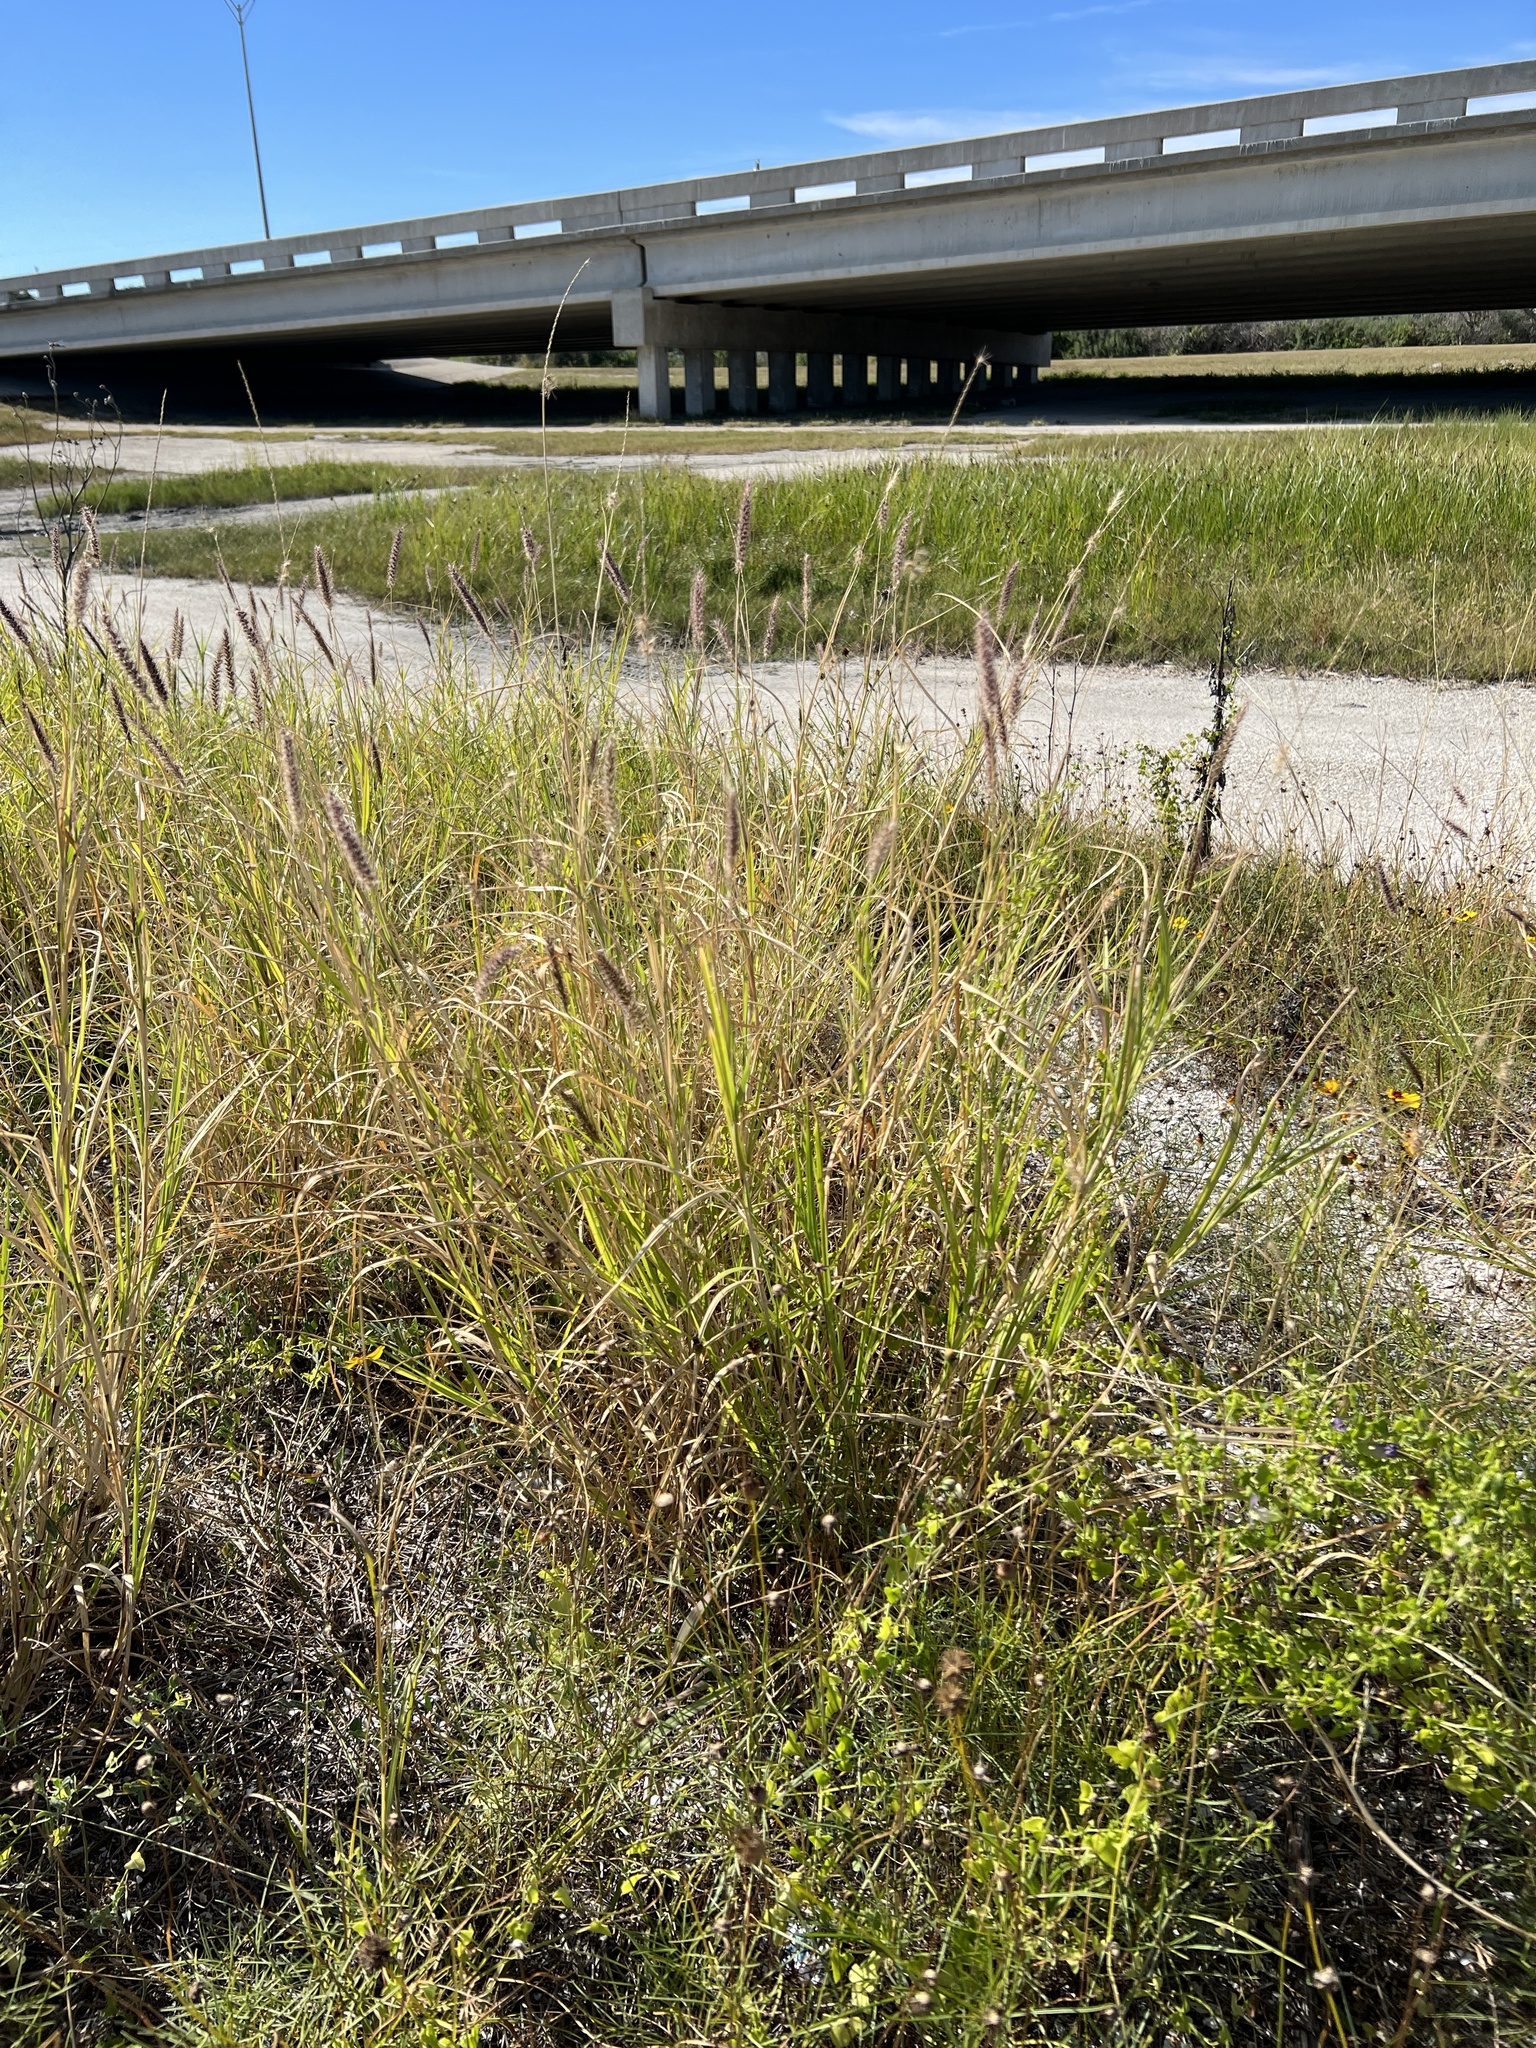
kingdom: Plantae
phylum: Tracheophyta
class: Liliopsida
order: Poales
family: Poaceae
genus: Cenchrus
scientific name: Cenchrus ciliaris
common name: Buffelgrass
